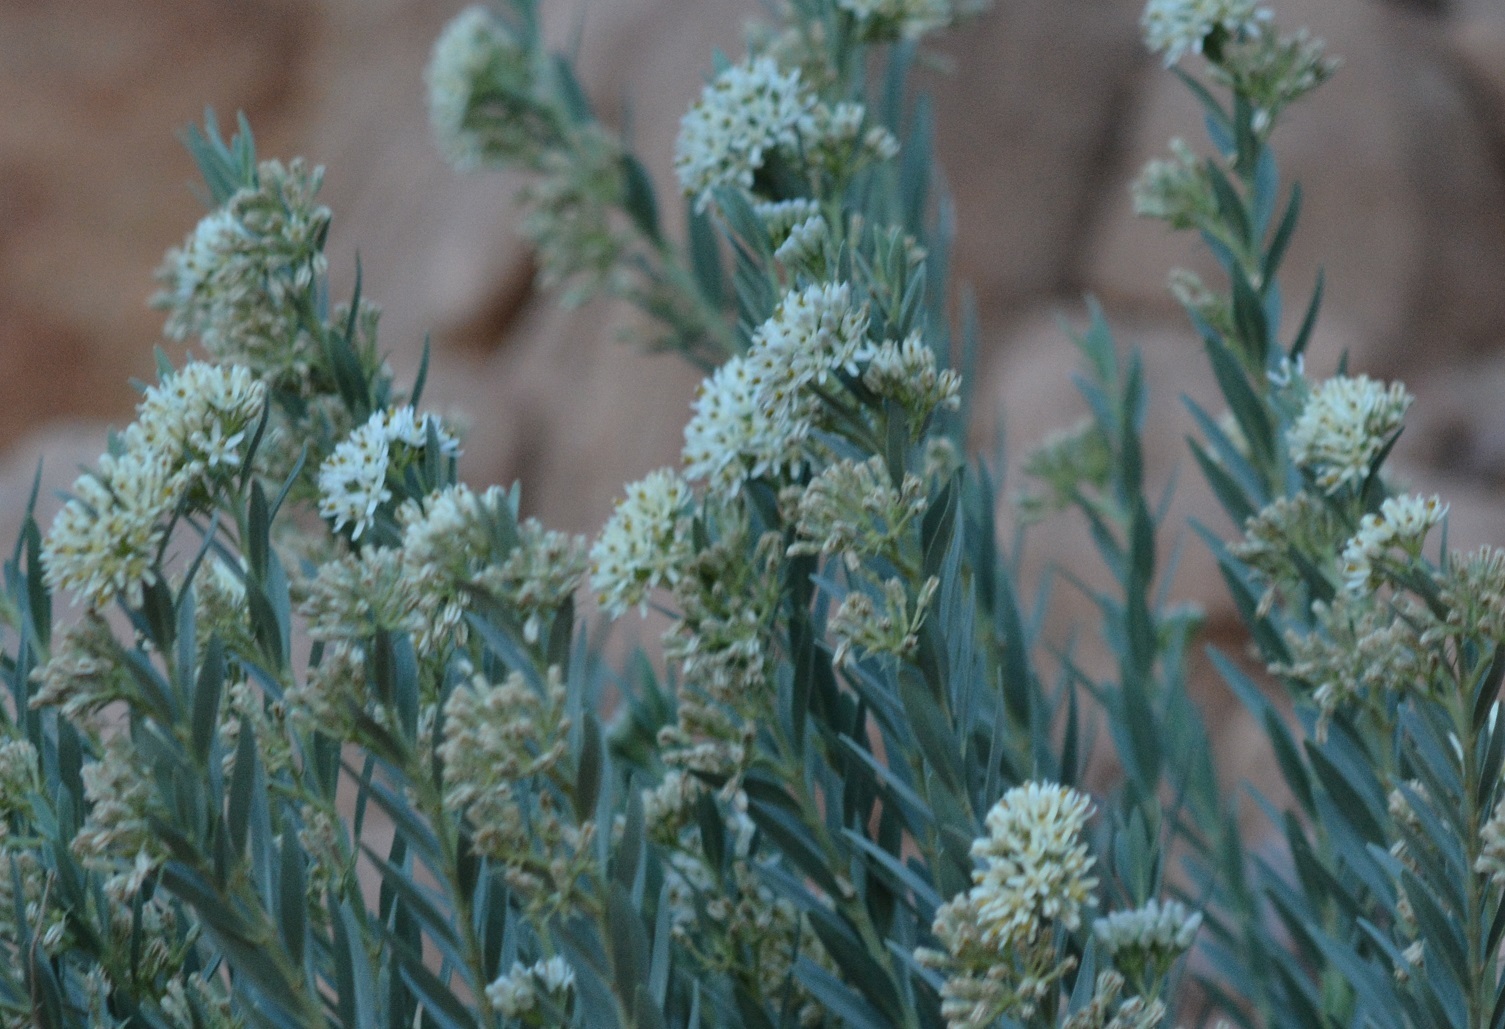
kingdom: Plantae
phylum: Tracheophyta
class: Magnoliopsida
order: Gentianales
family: Apocynaceae
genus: Solenostemma
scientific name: Solenostemma oleifolium
